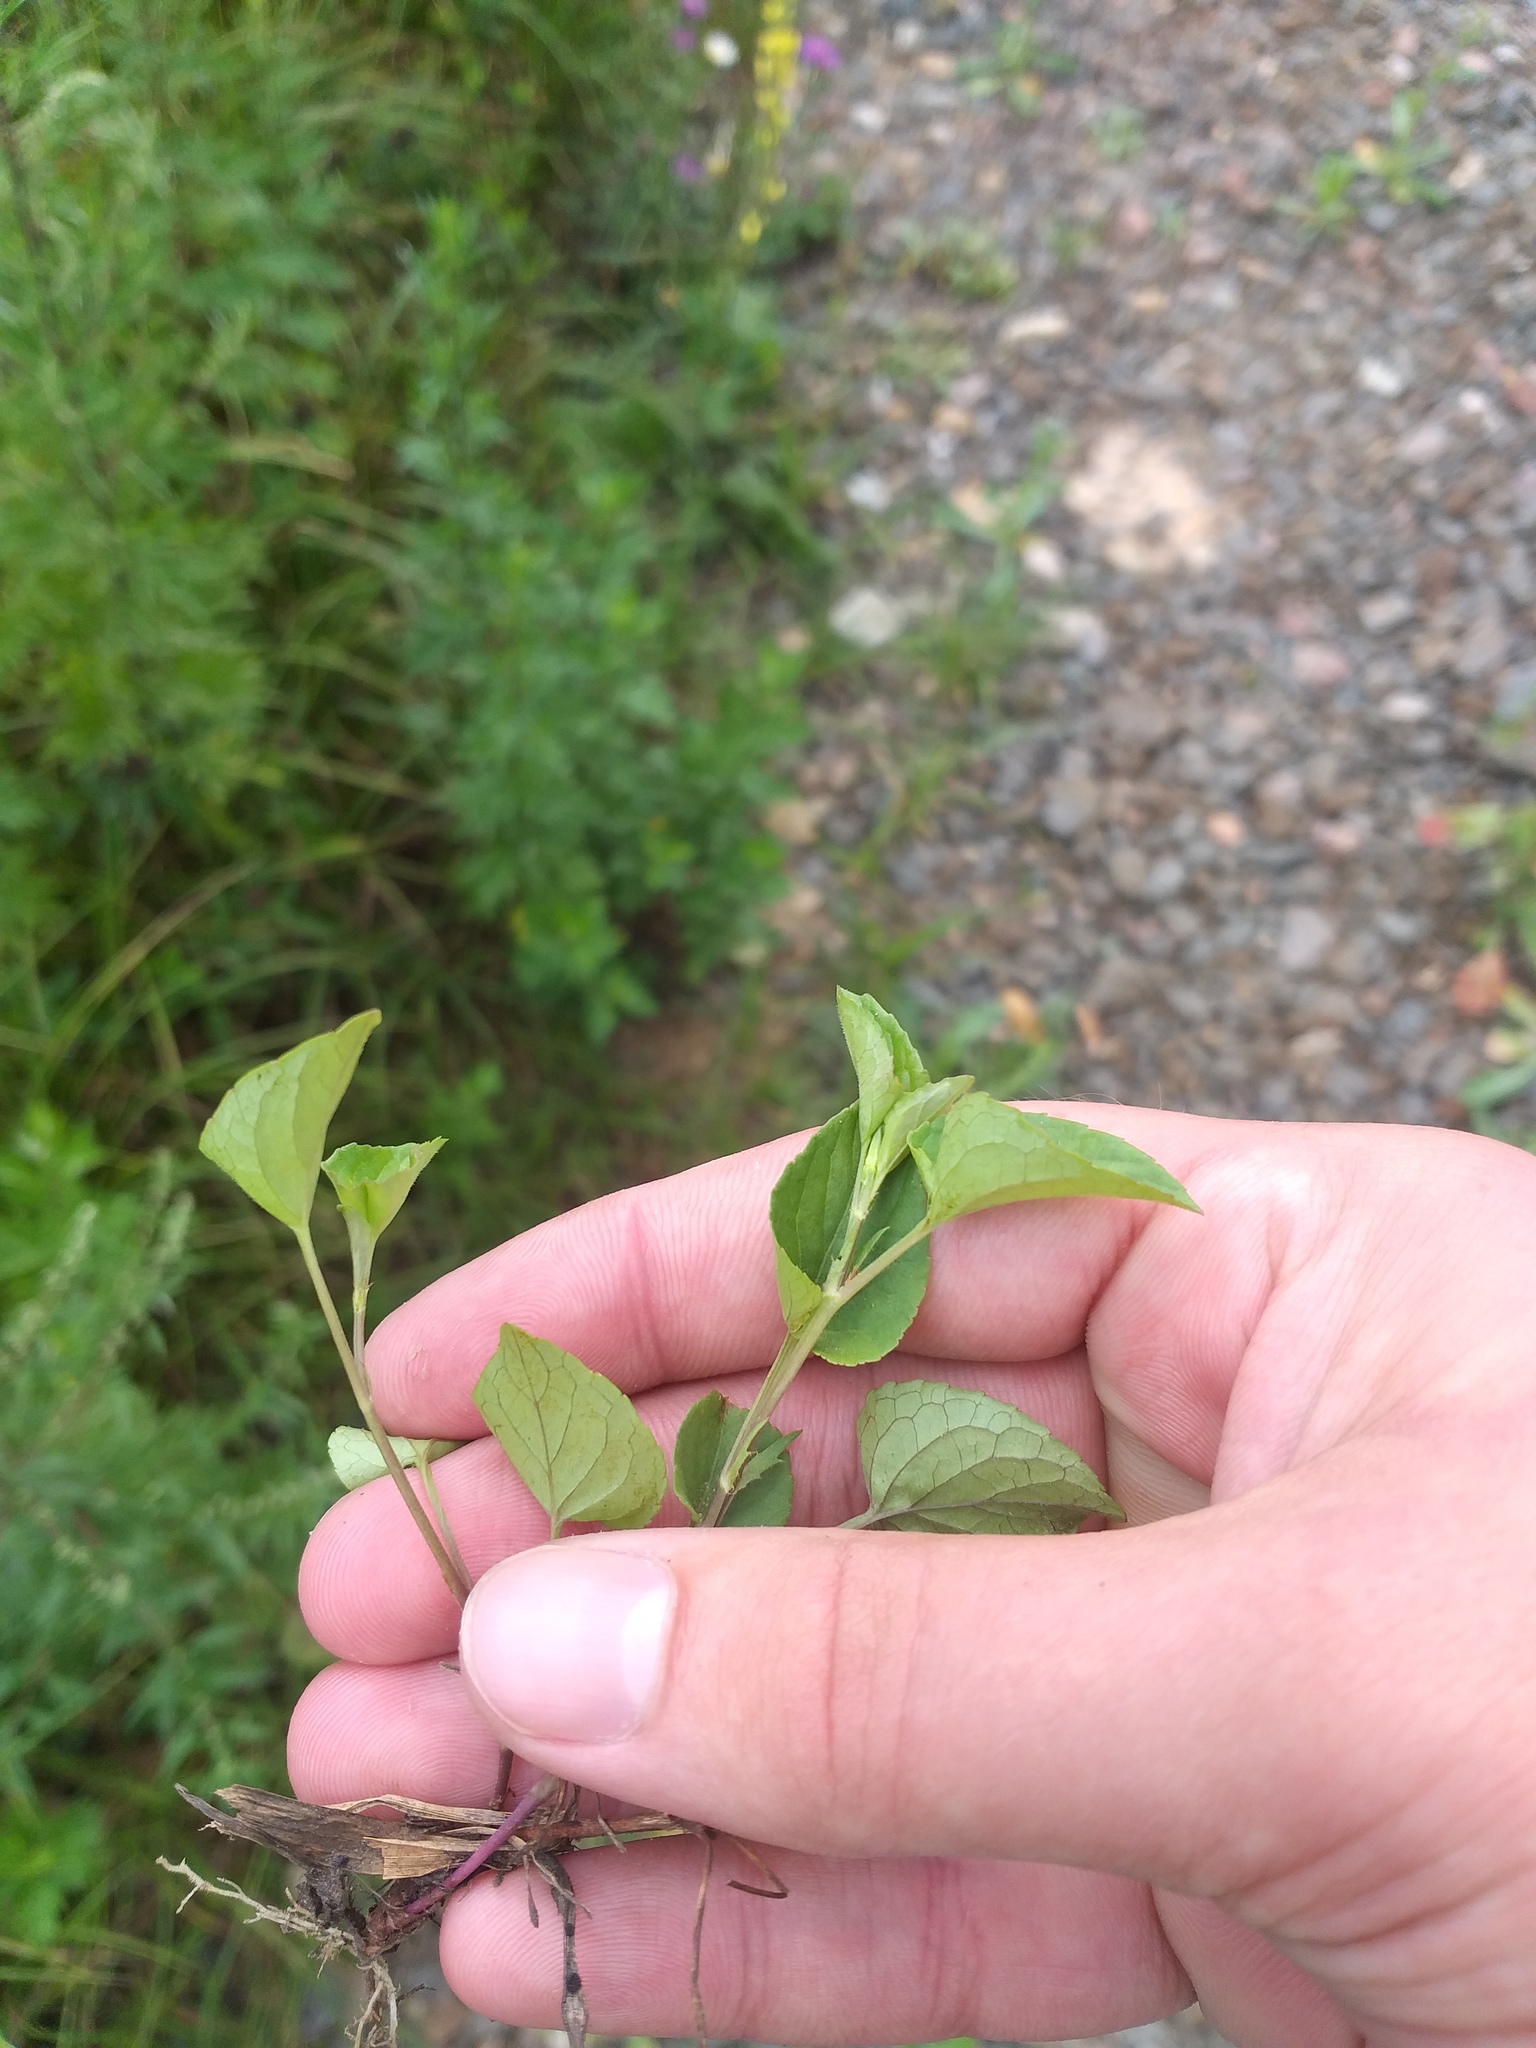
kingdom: Plantae
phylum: Tracheophyta
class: Magnoliopsida
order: Malpighiales
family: Violaceae
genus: Viola
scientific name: Viola canina
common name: Heath dog-violet
